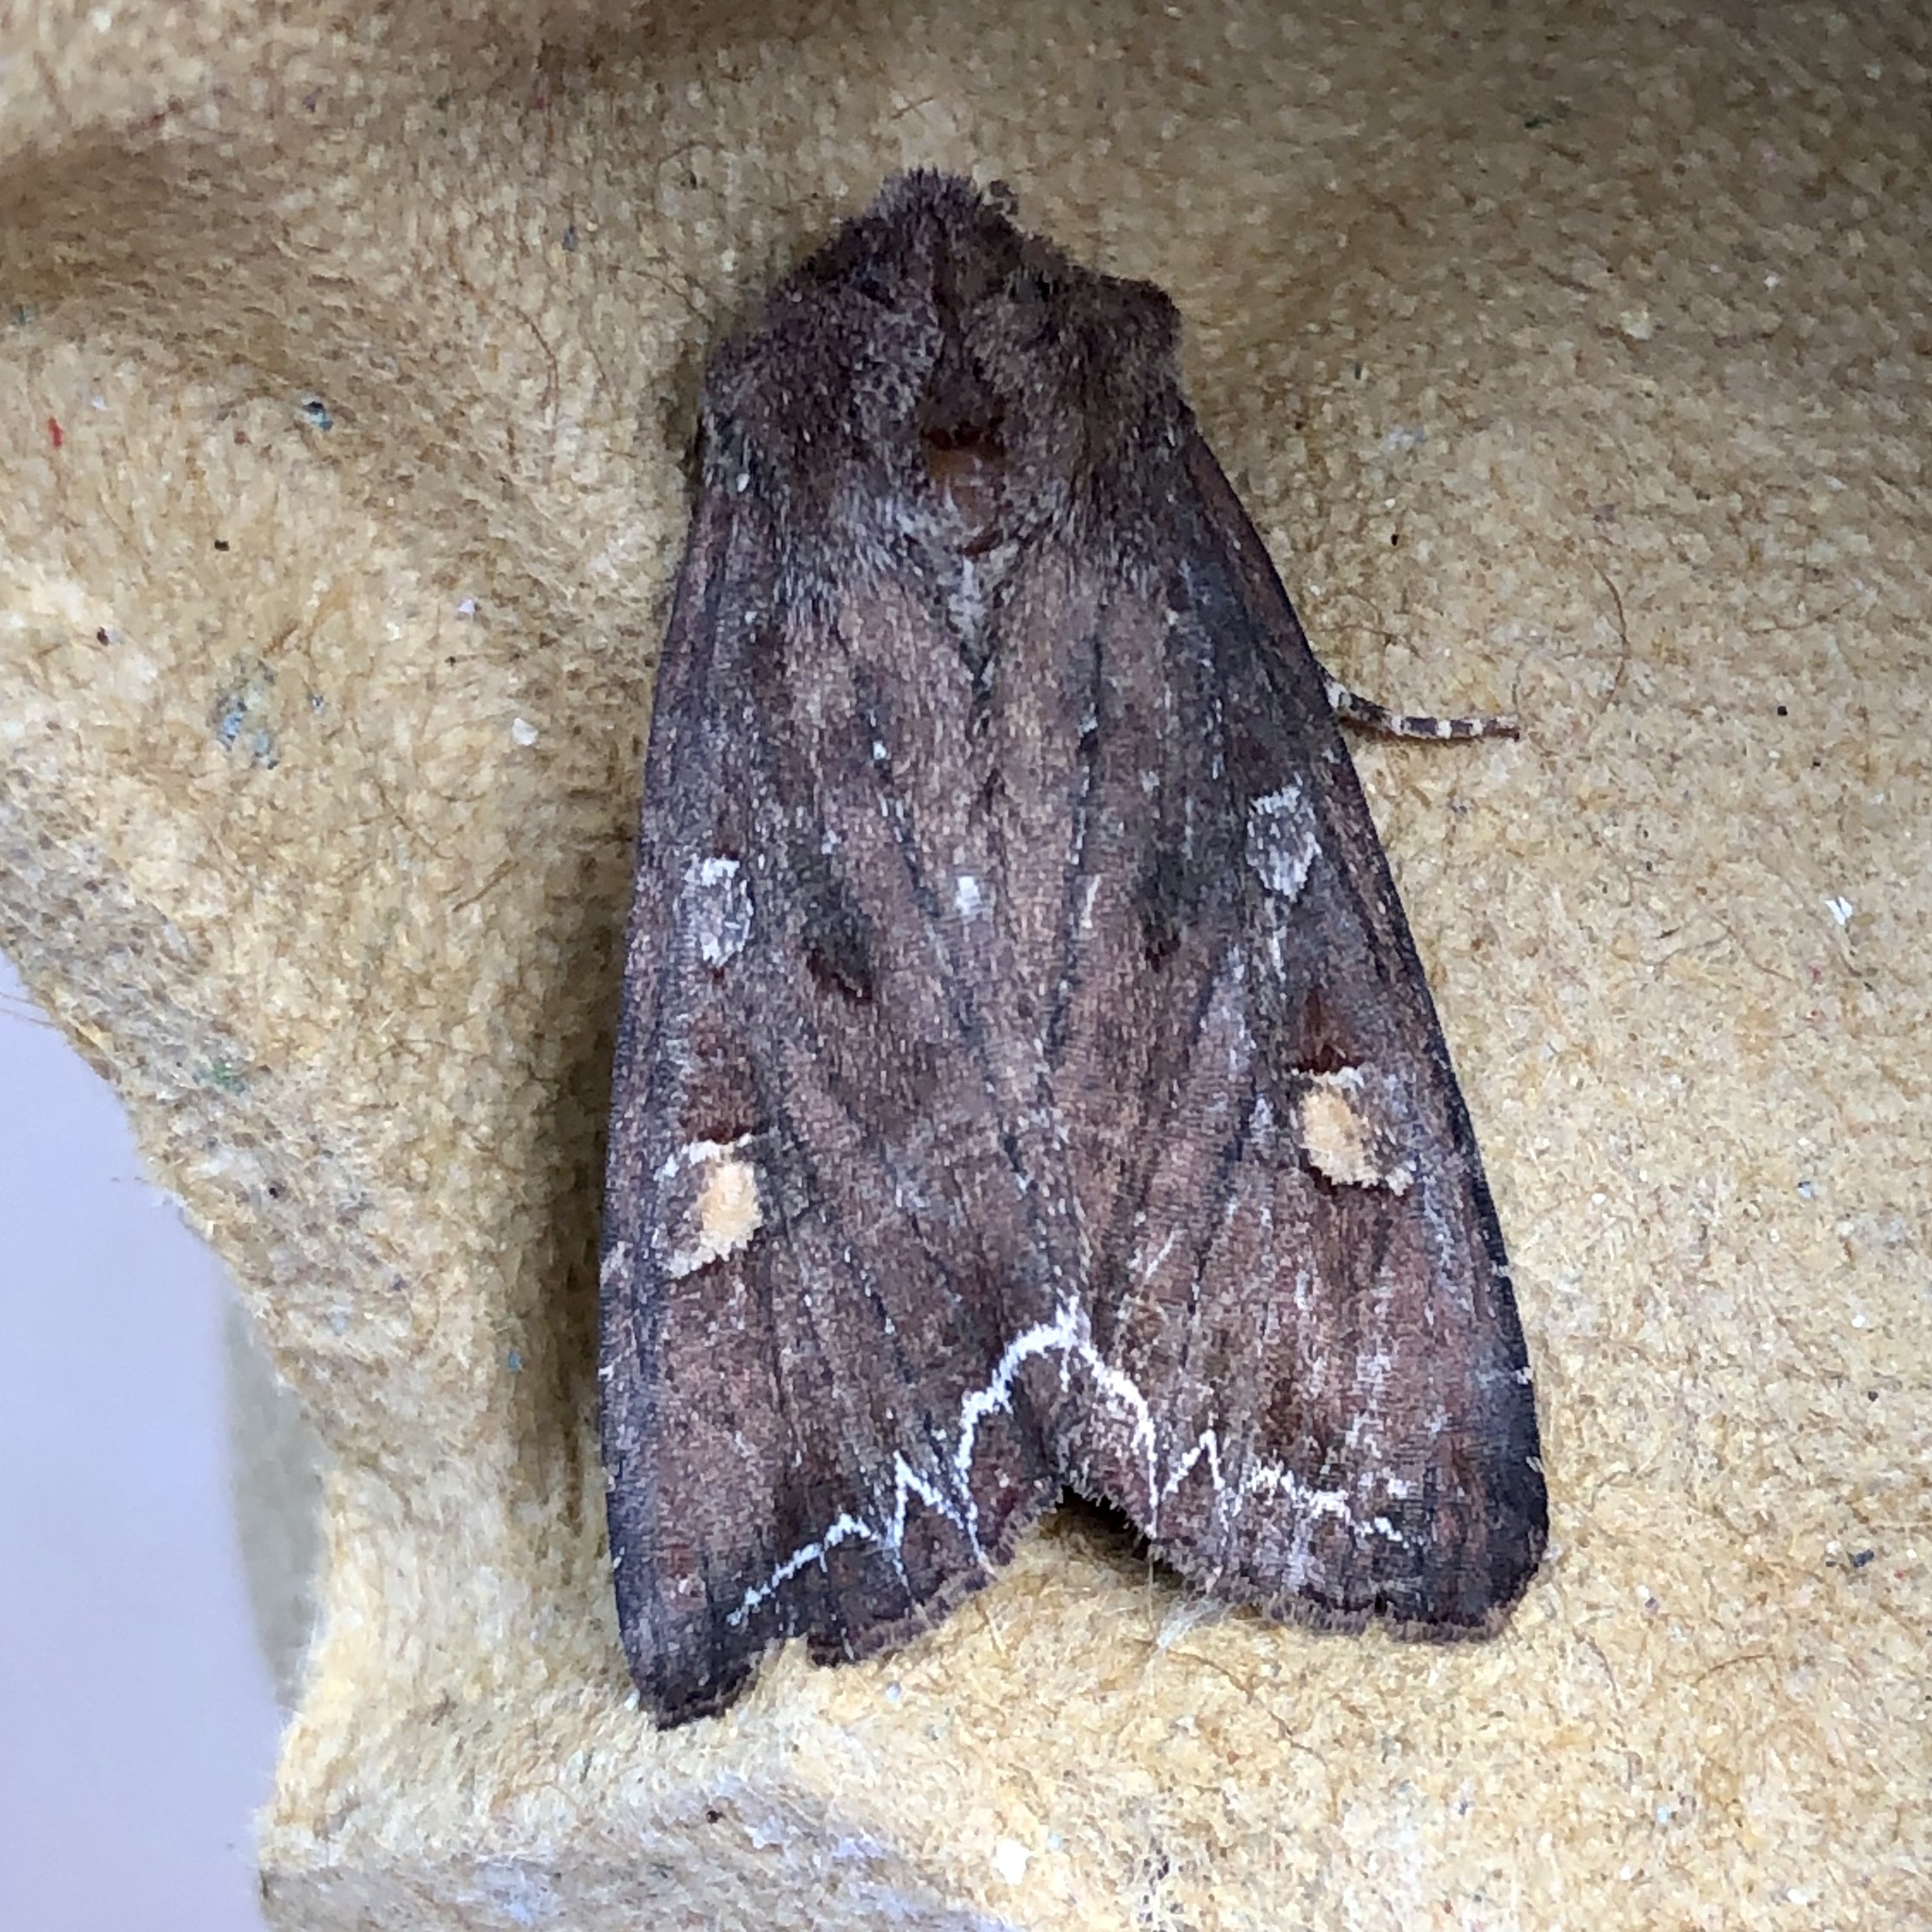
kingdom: Animalia
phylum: Arthropoda
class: Insecta
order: Lepidoptera
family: Noctuidae
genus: Lacanobia
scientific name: Lacanobia oleracea
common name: Bright-line brown-eye
